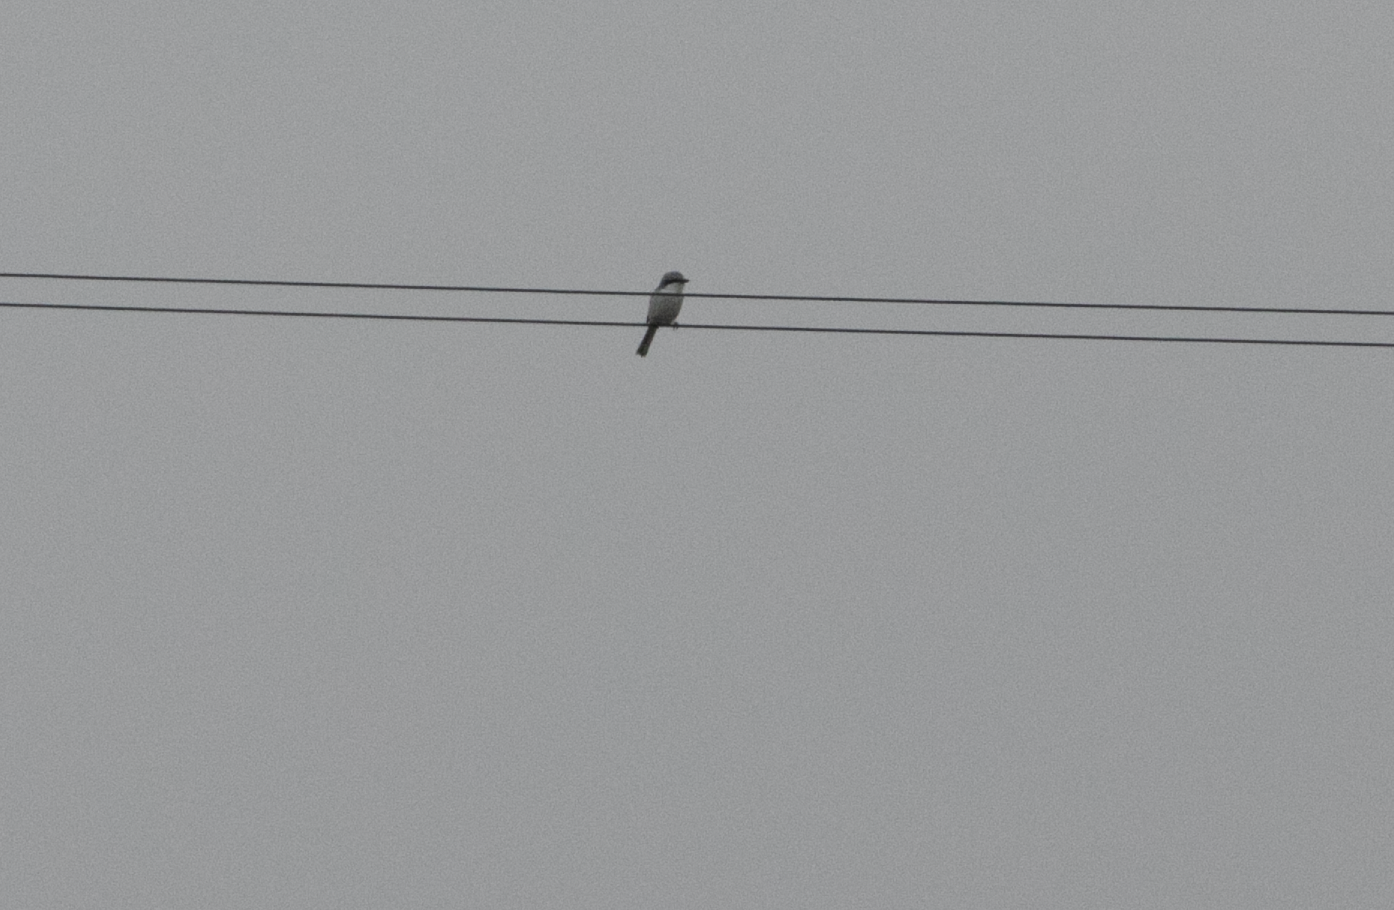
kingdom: Animalia
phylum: Chordata
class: Aves
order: Passeriformes
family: Laniidae
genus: Lanius
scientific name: Lanius excubitor
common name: Great grey shrike
